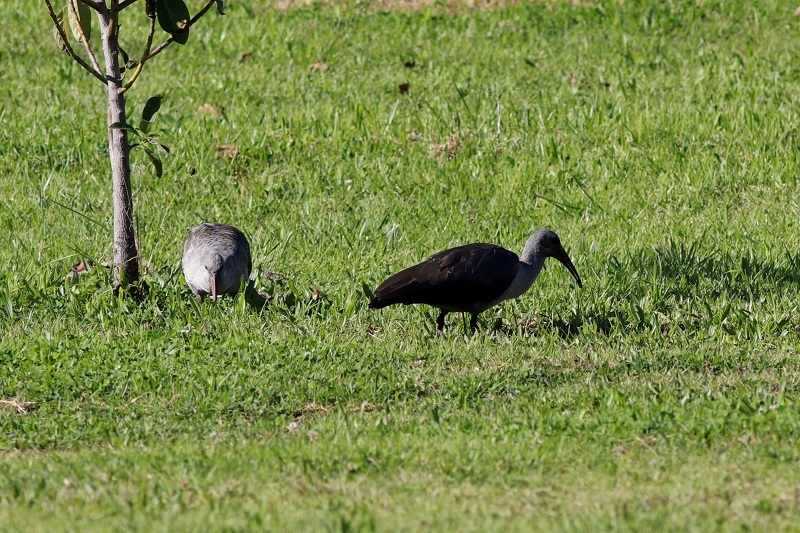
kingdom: Animalia
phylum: Chordata
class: Aves
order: Pelecaniformes
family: Threskiornithidae
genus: Bostrychia
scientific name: Bostrychia hagedash
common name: Hadada ibis
